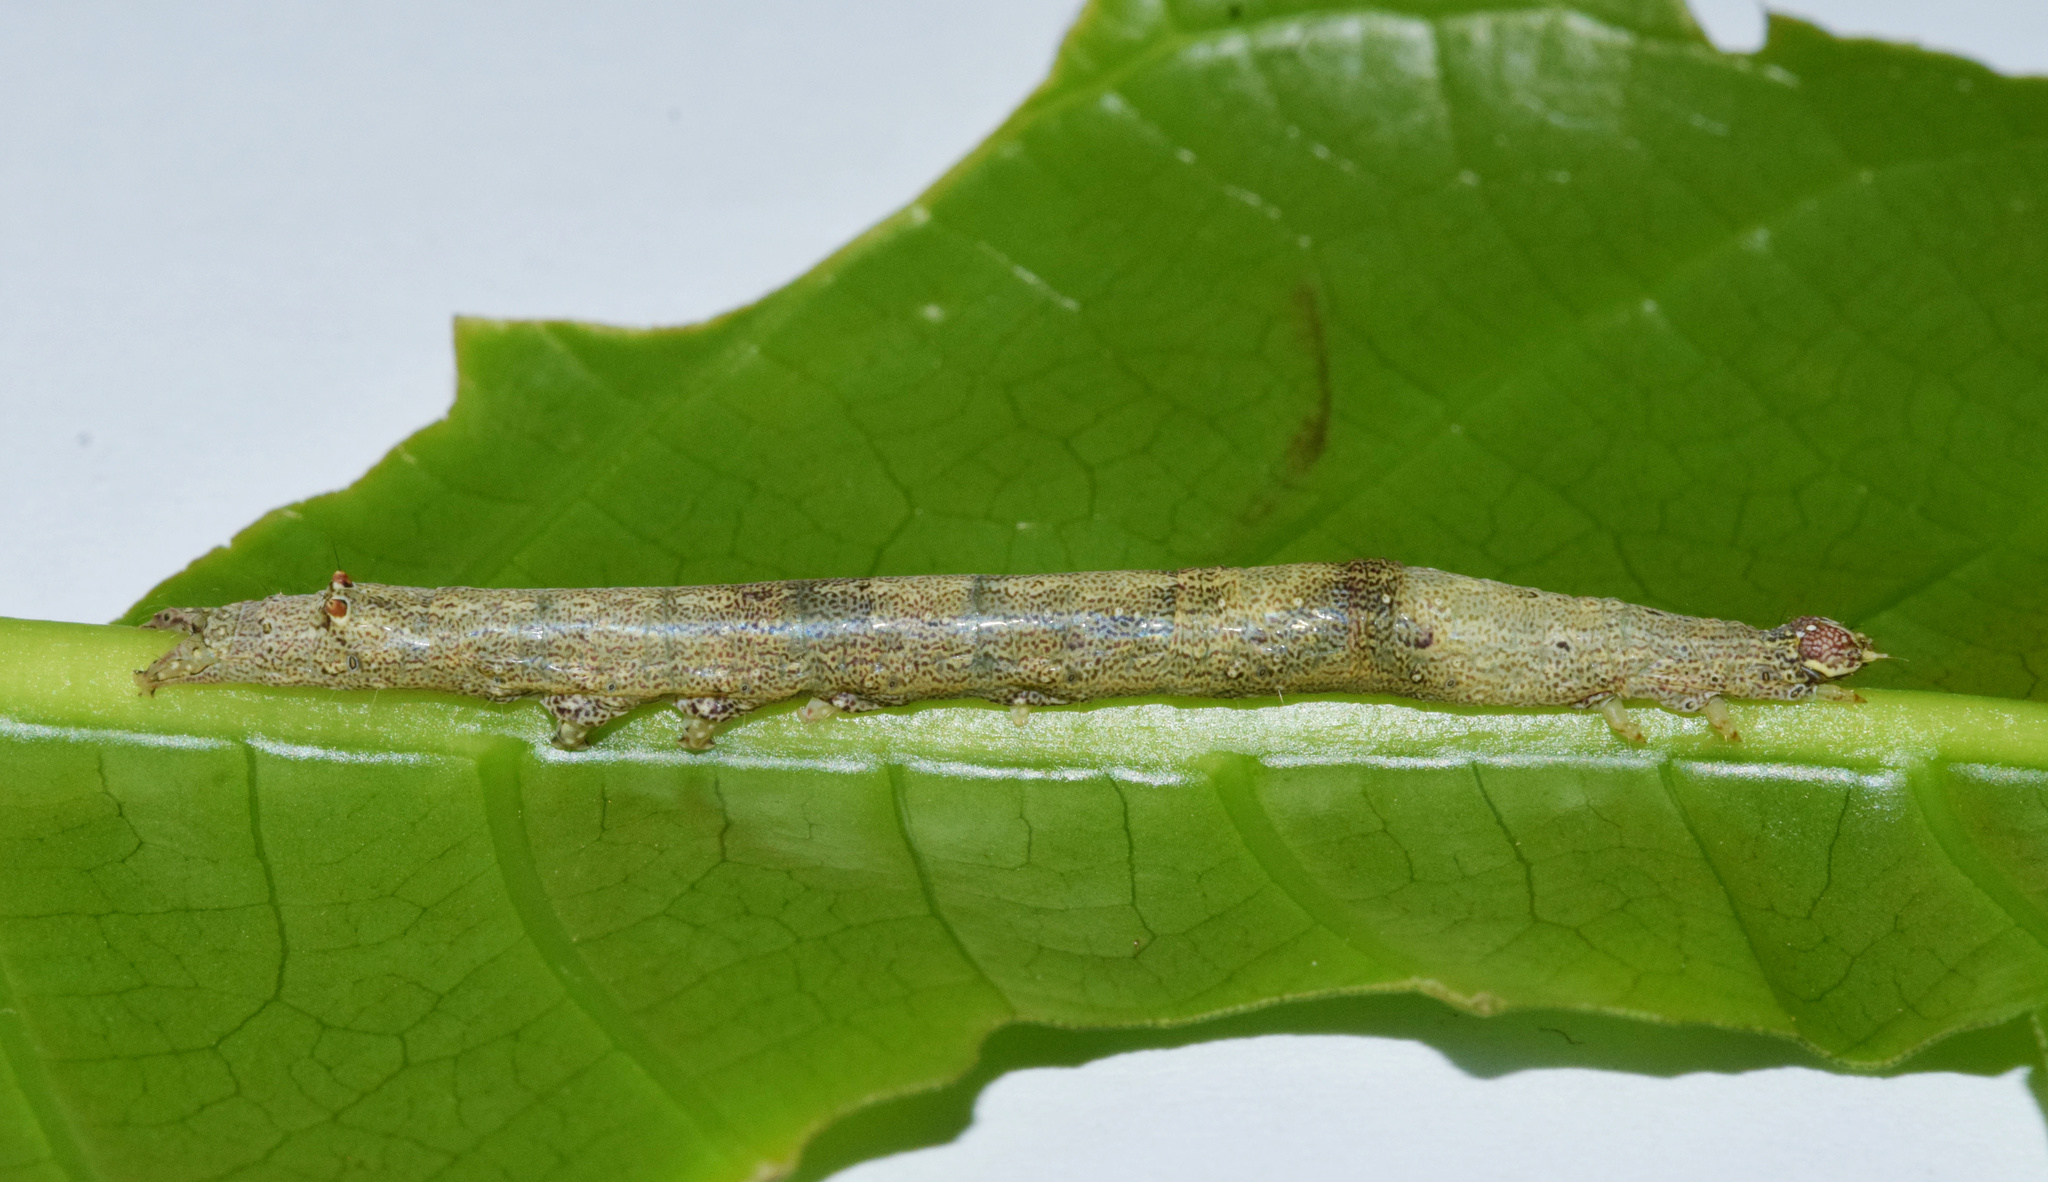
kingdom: Animalia
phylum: Arthropoda
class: Insecta
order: Lepidoptera
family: Erebidae
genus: Achaea
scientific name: Achaea praestans
